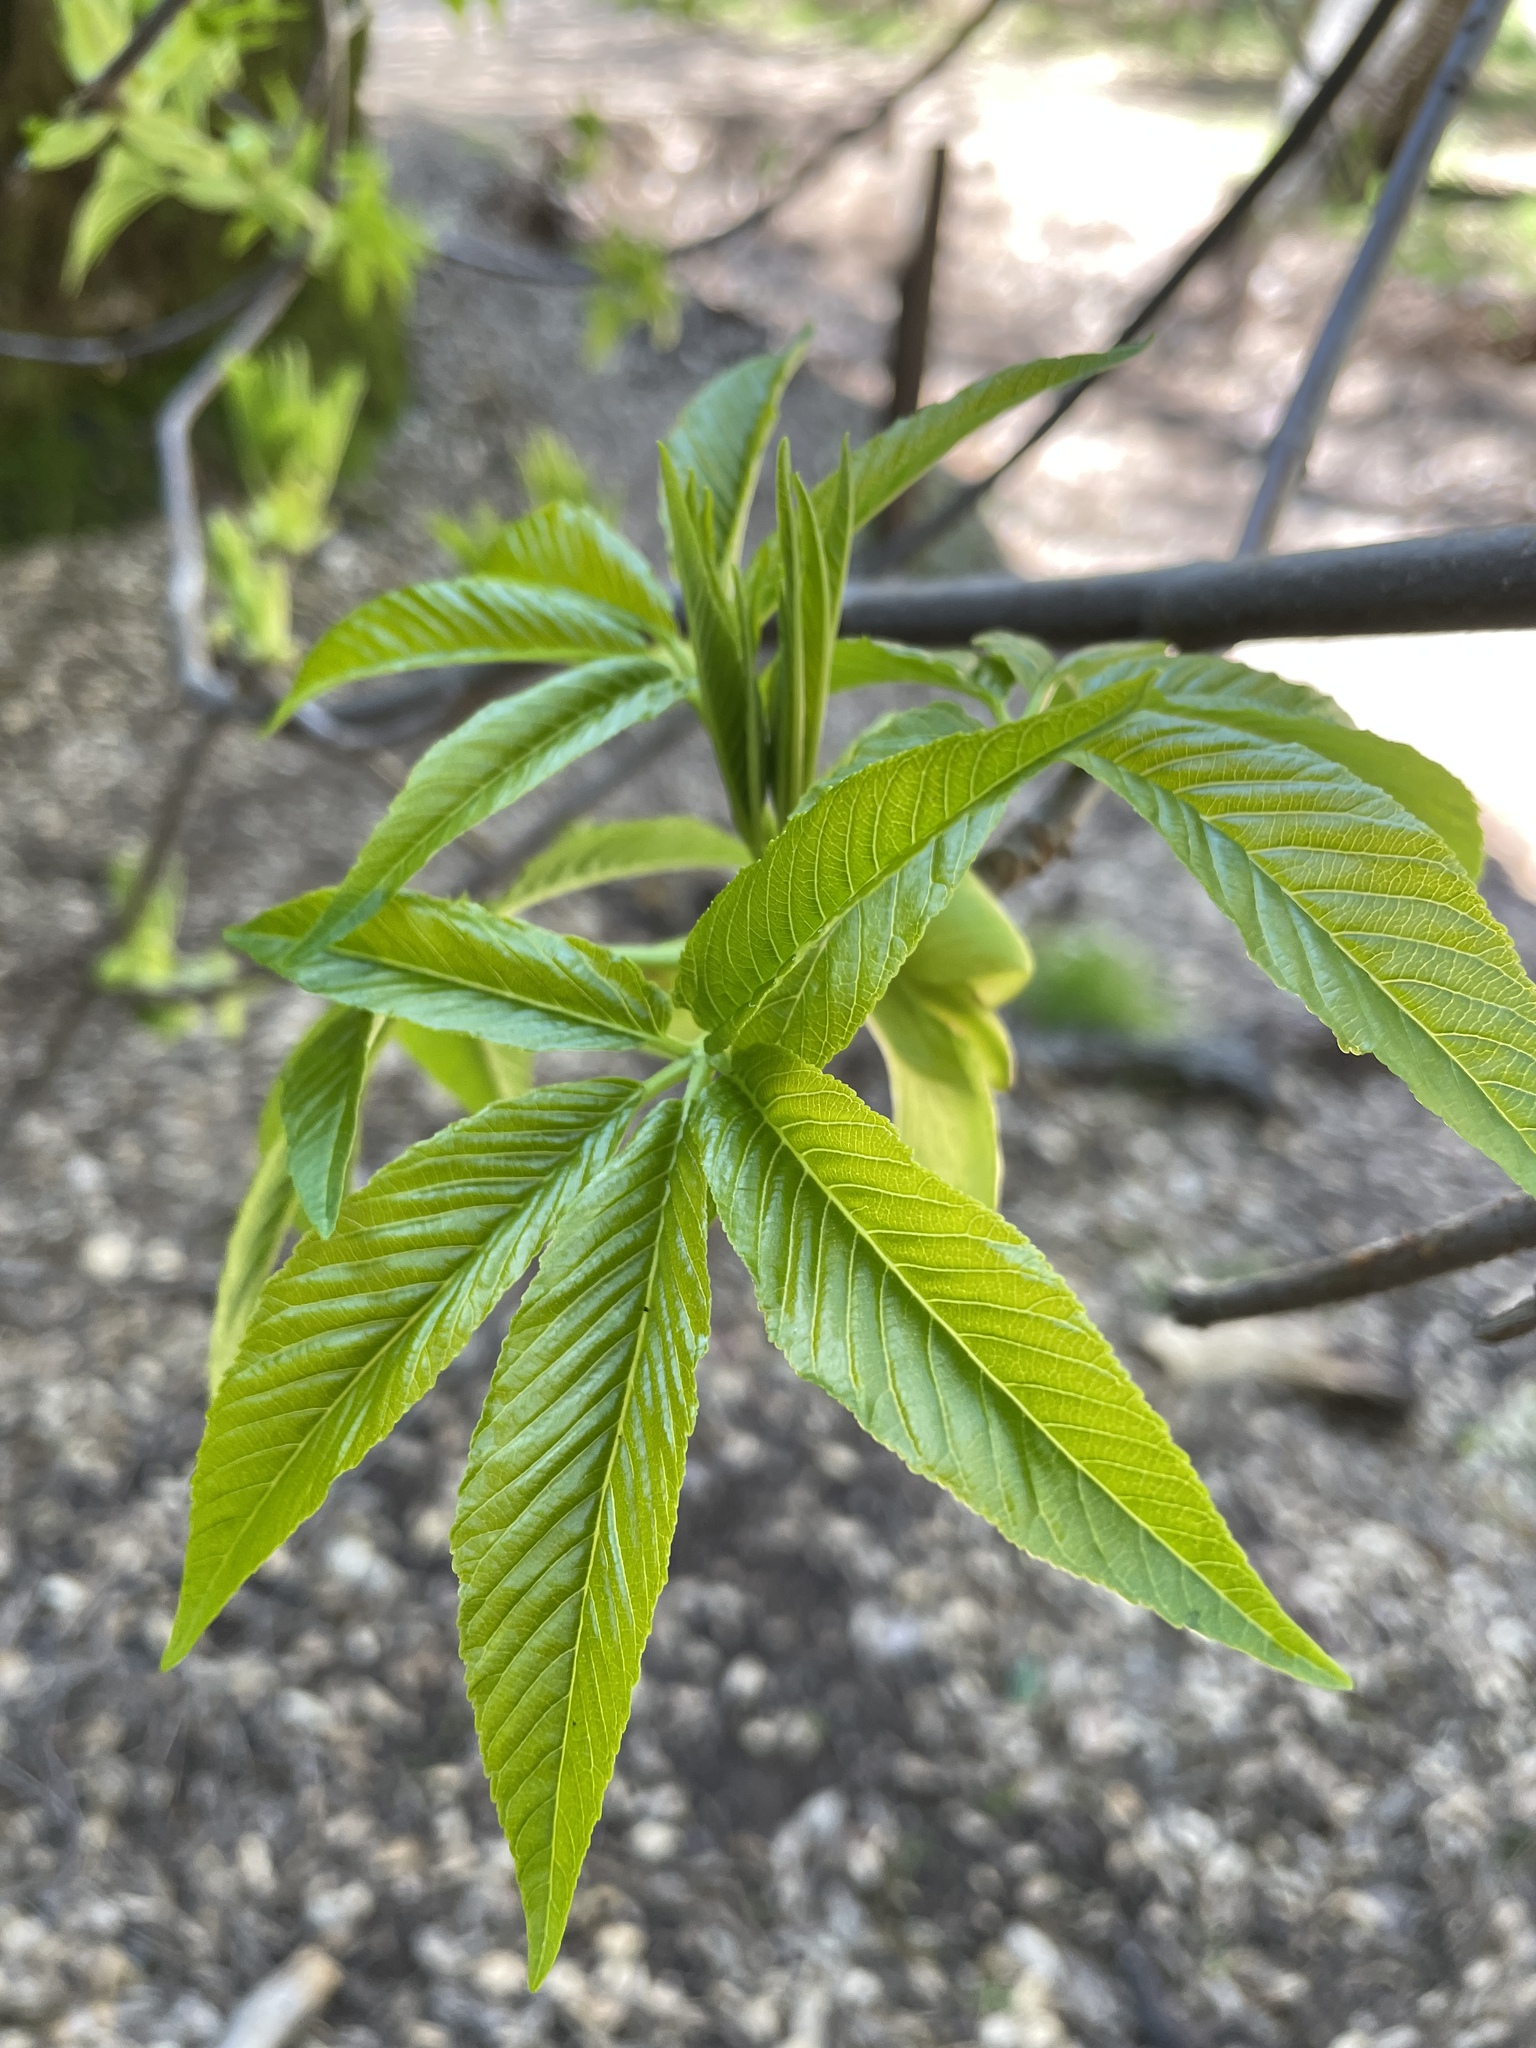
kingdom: Plantae
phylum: Tracheophyta
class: Magnoliopsida
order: Sapindales
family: Sapindaceae
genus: Aesculus
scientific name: Aesculus californica
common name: California buckeye
